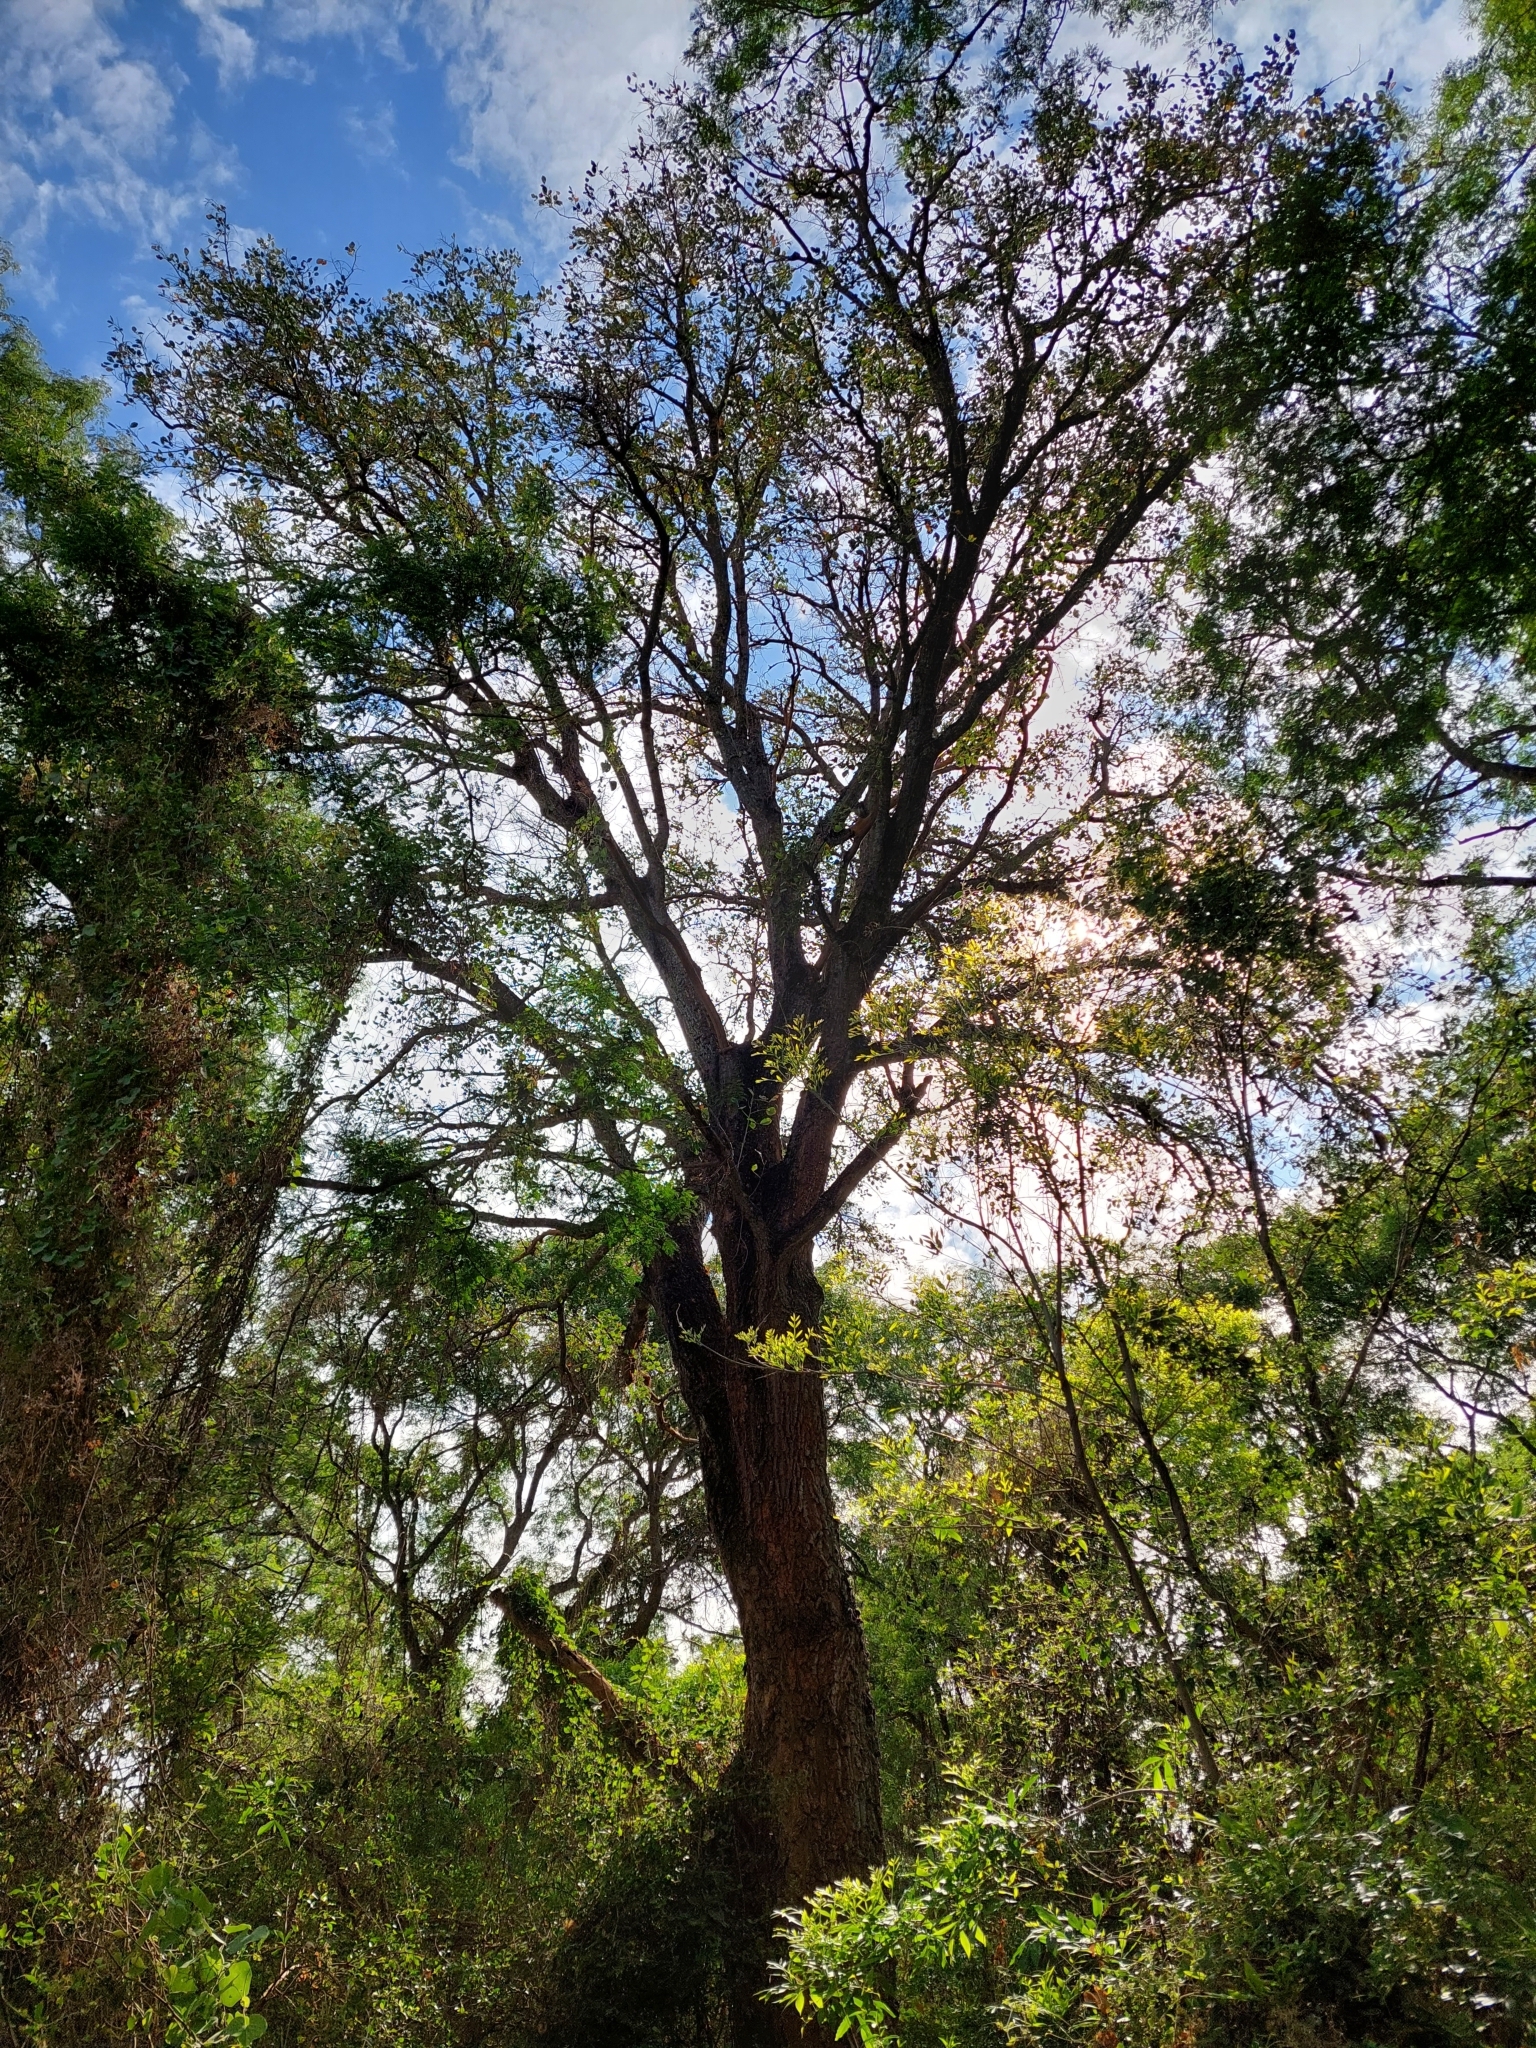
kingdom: Plantae
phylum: Tracheophyta
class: Magnoliopsida
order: Fabales
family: Fabaceae
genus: Erythrina
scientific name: Erythrina mulungu
